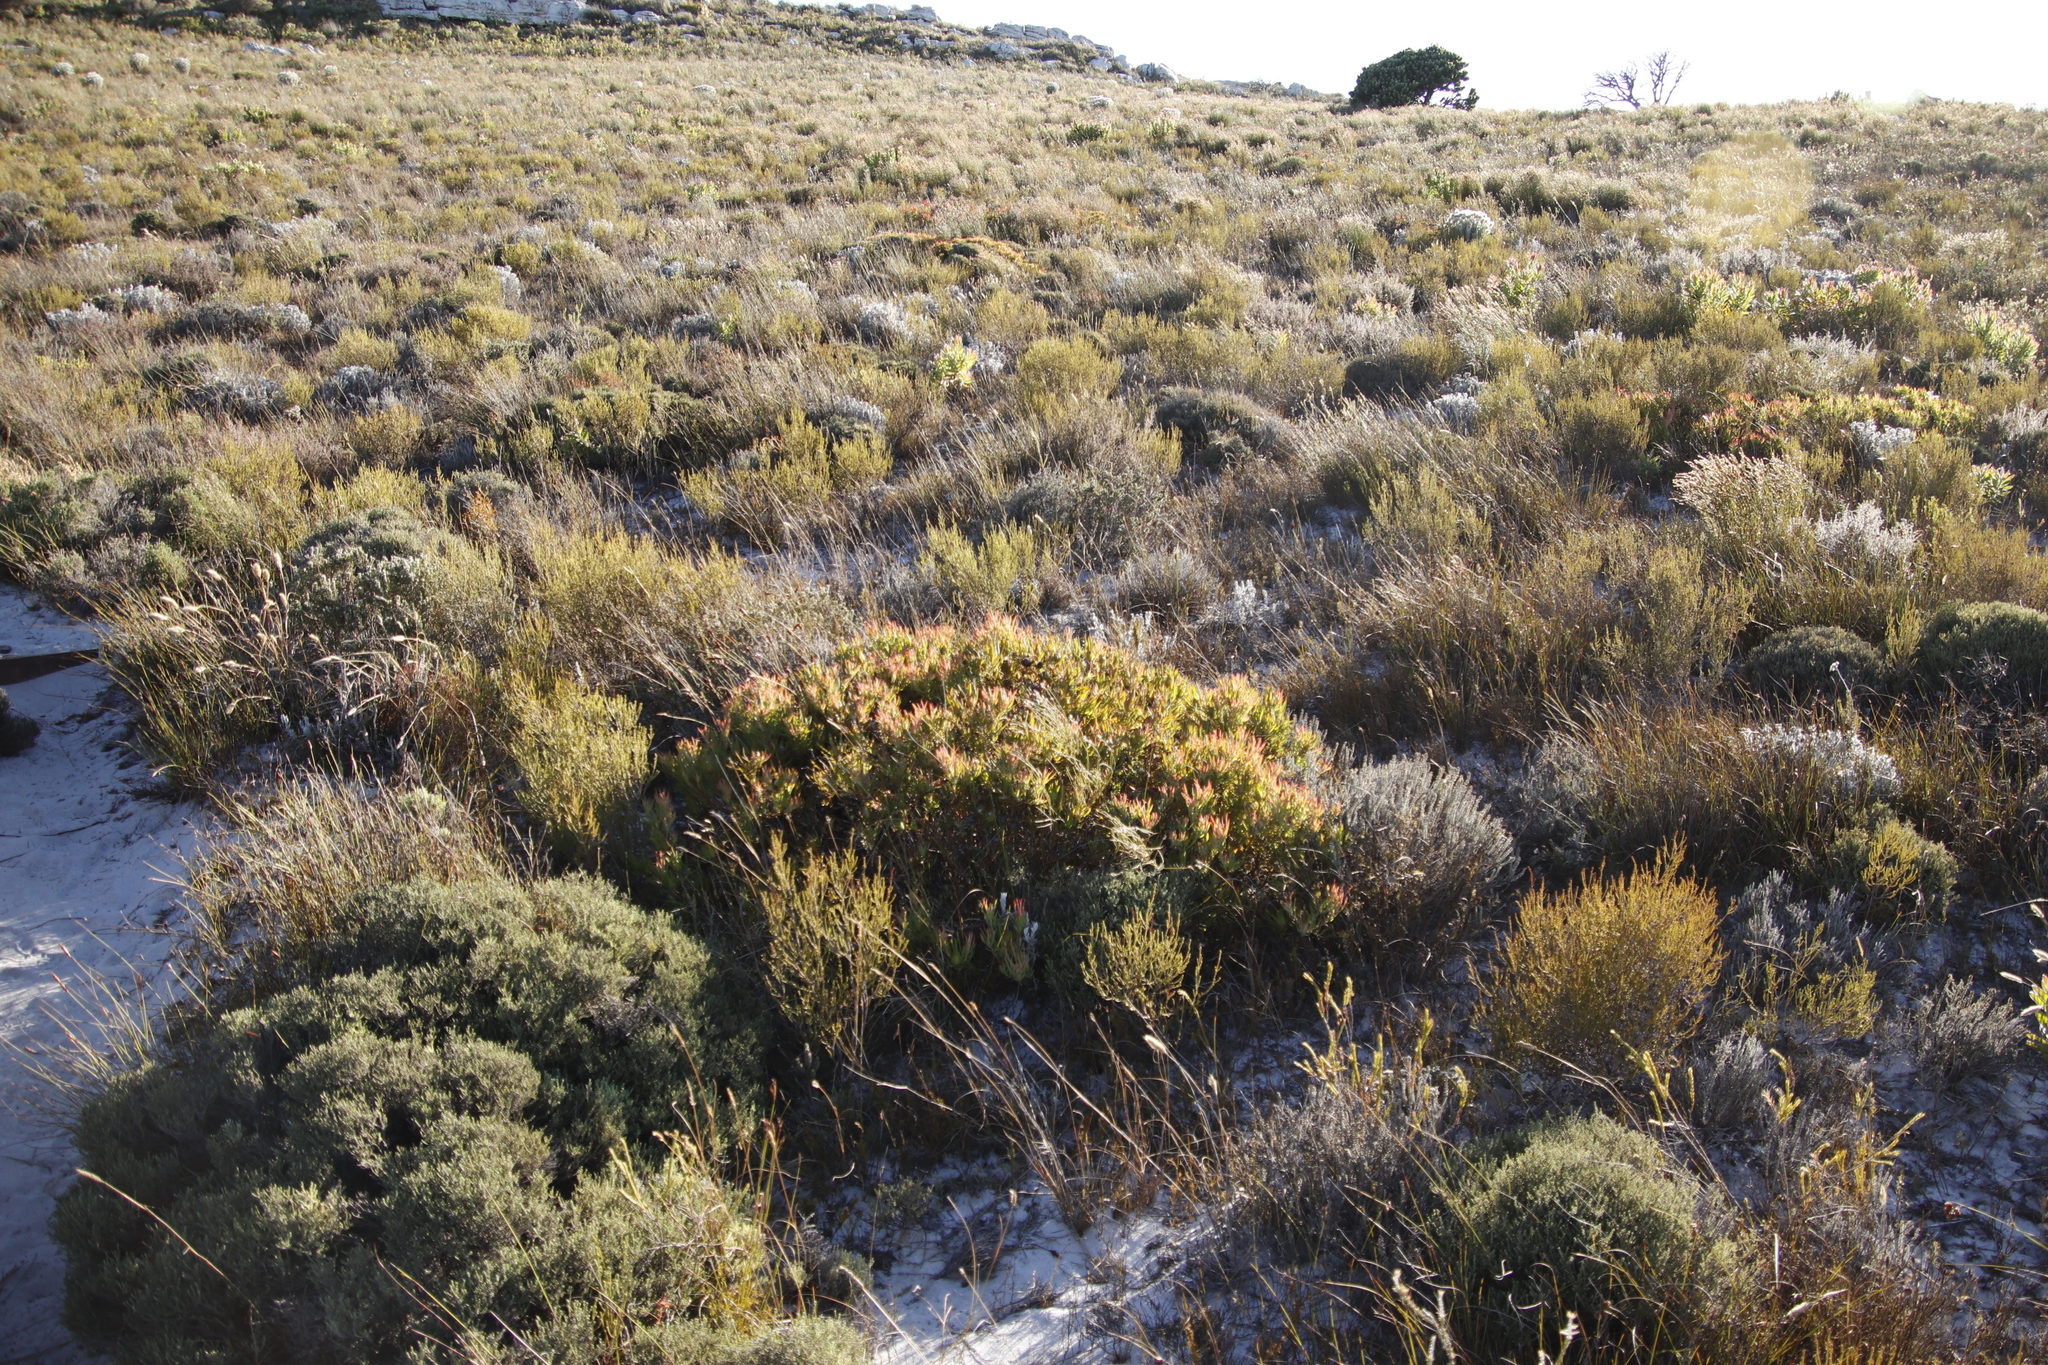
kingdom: Plantae
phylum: Tracheophyta
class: Magnoliopsida
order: Proteales
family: Proteaceae
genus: Leucadendron
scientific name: Leucadendron salignum
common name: Common sunshine conebush
